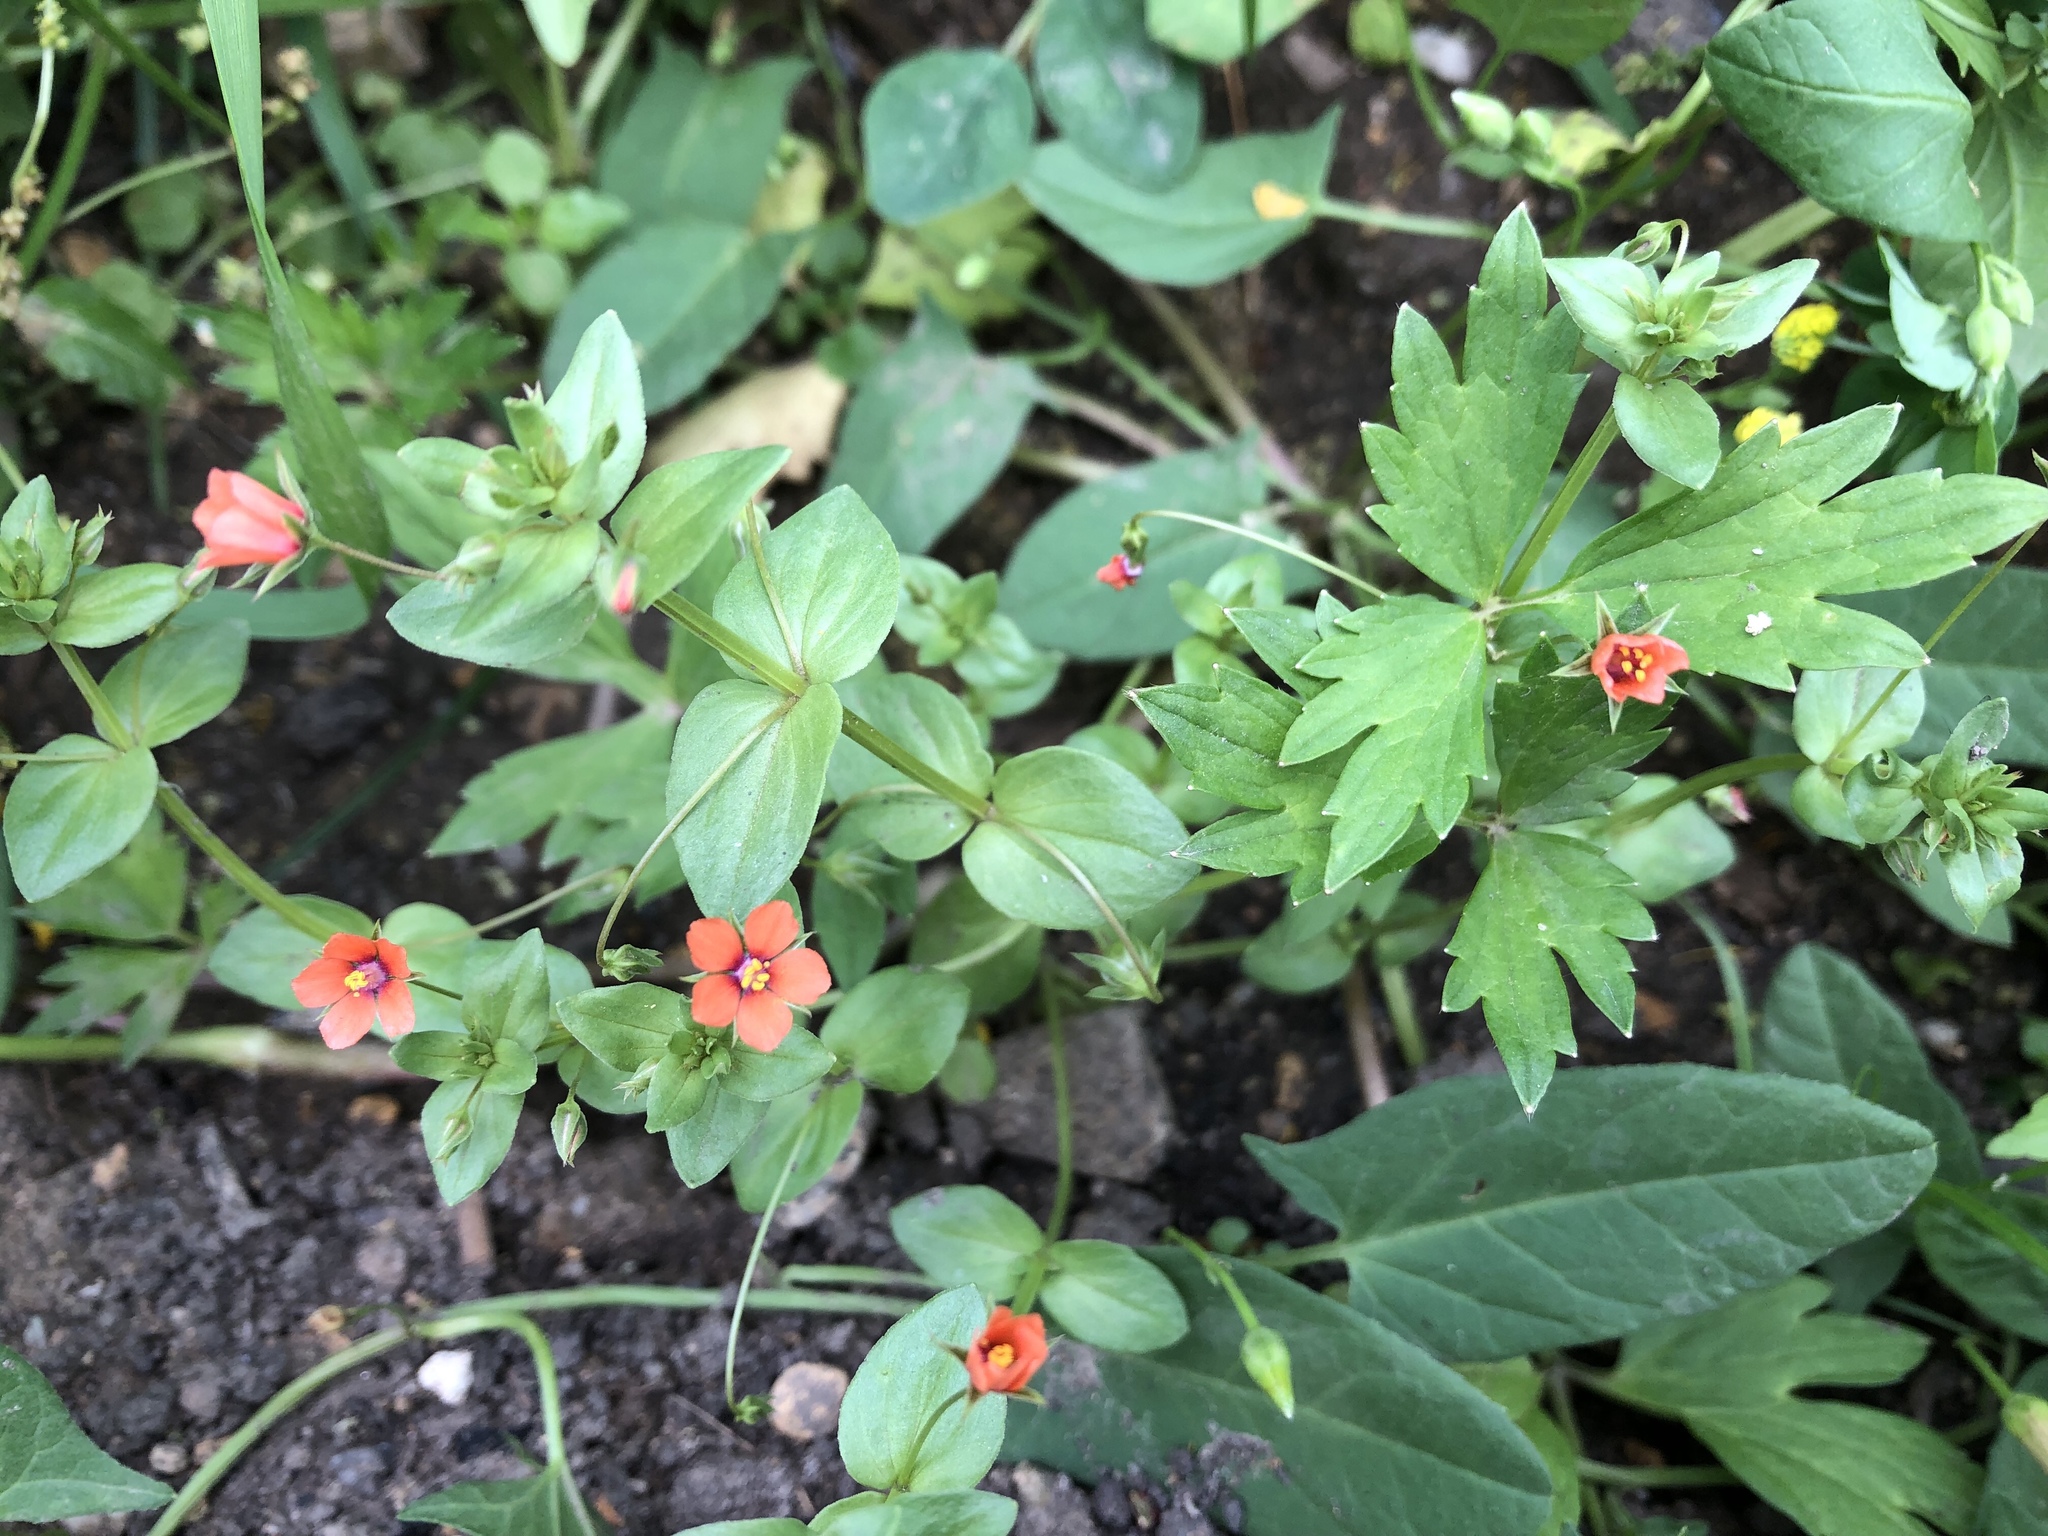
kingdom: Plantae
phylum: Tracheophyta
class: Magnoliopsida
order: Ericales
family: Primulaceae
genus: Lysimachia
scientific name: Lysimachia arvensis
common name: Scarlet pimpernel
